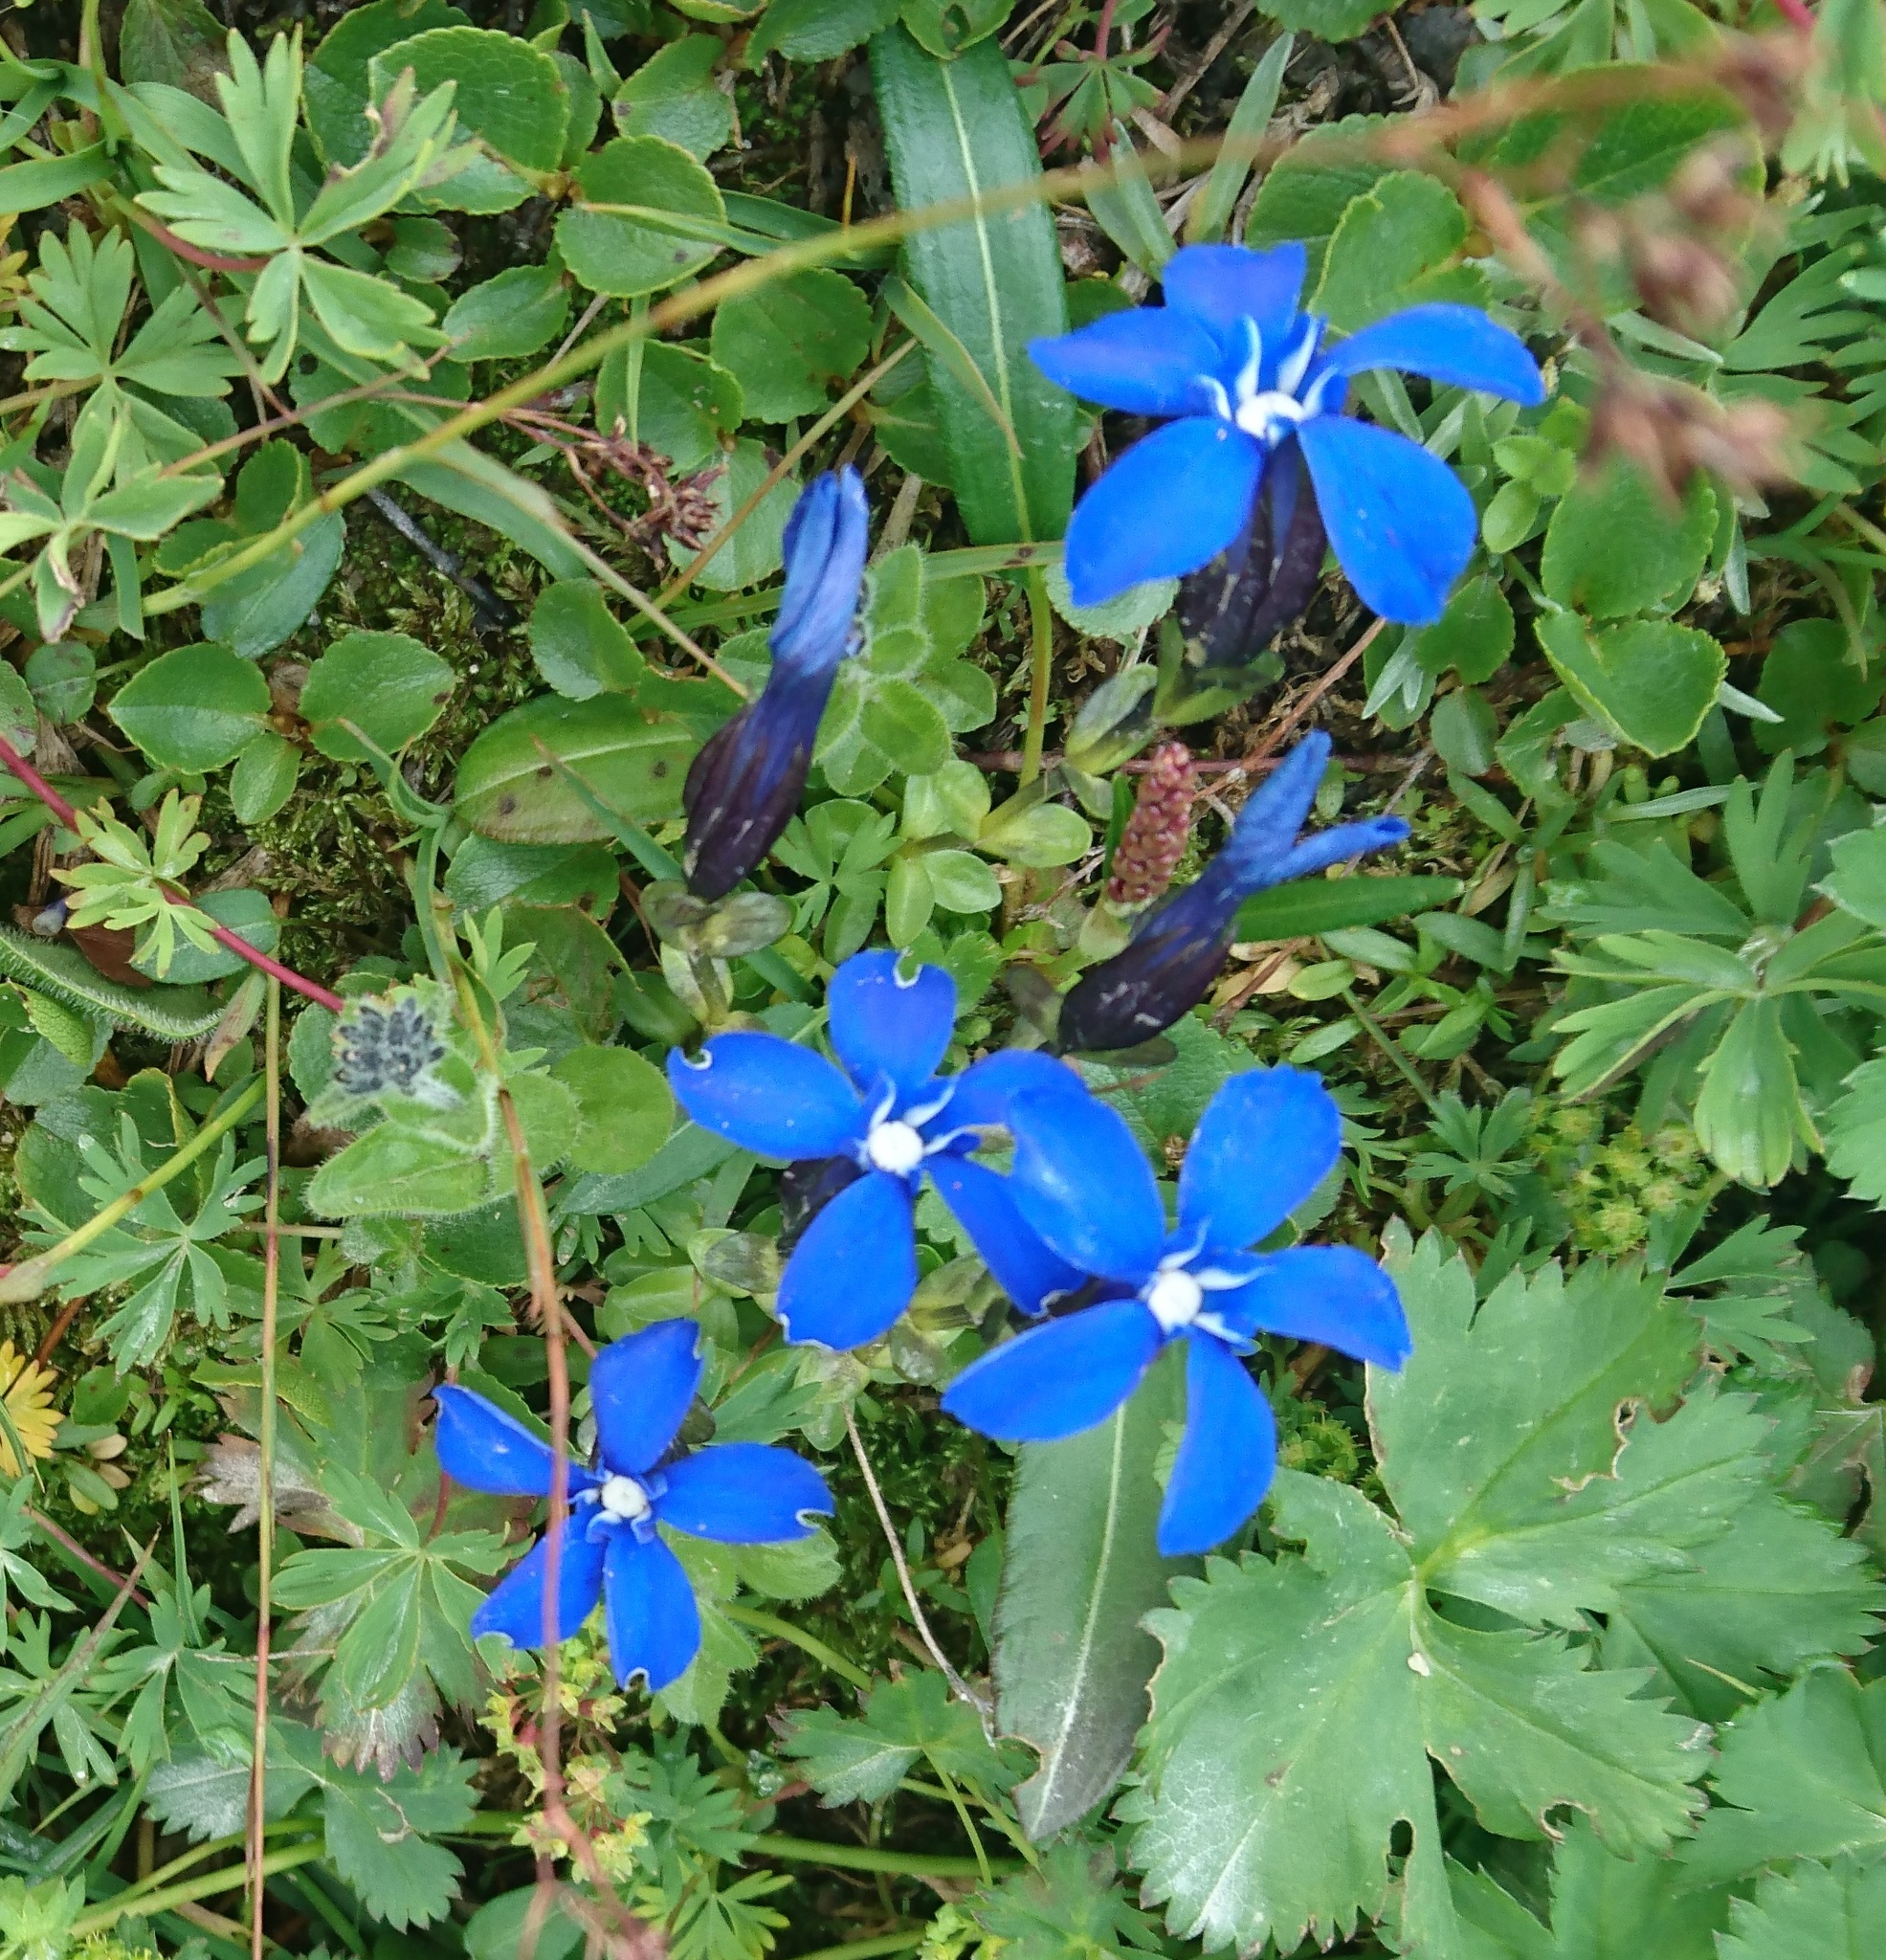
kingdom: Plantae
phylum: Tracheophyta
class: Magnoliopsida
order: Gentianales
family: Gentianaceae
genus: Gentiana
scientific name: Gentiana bavarica
